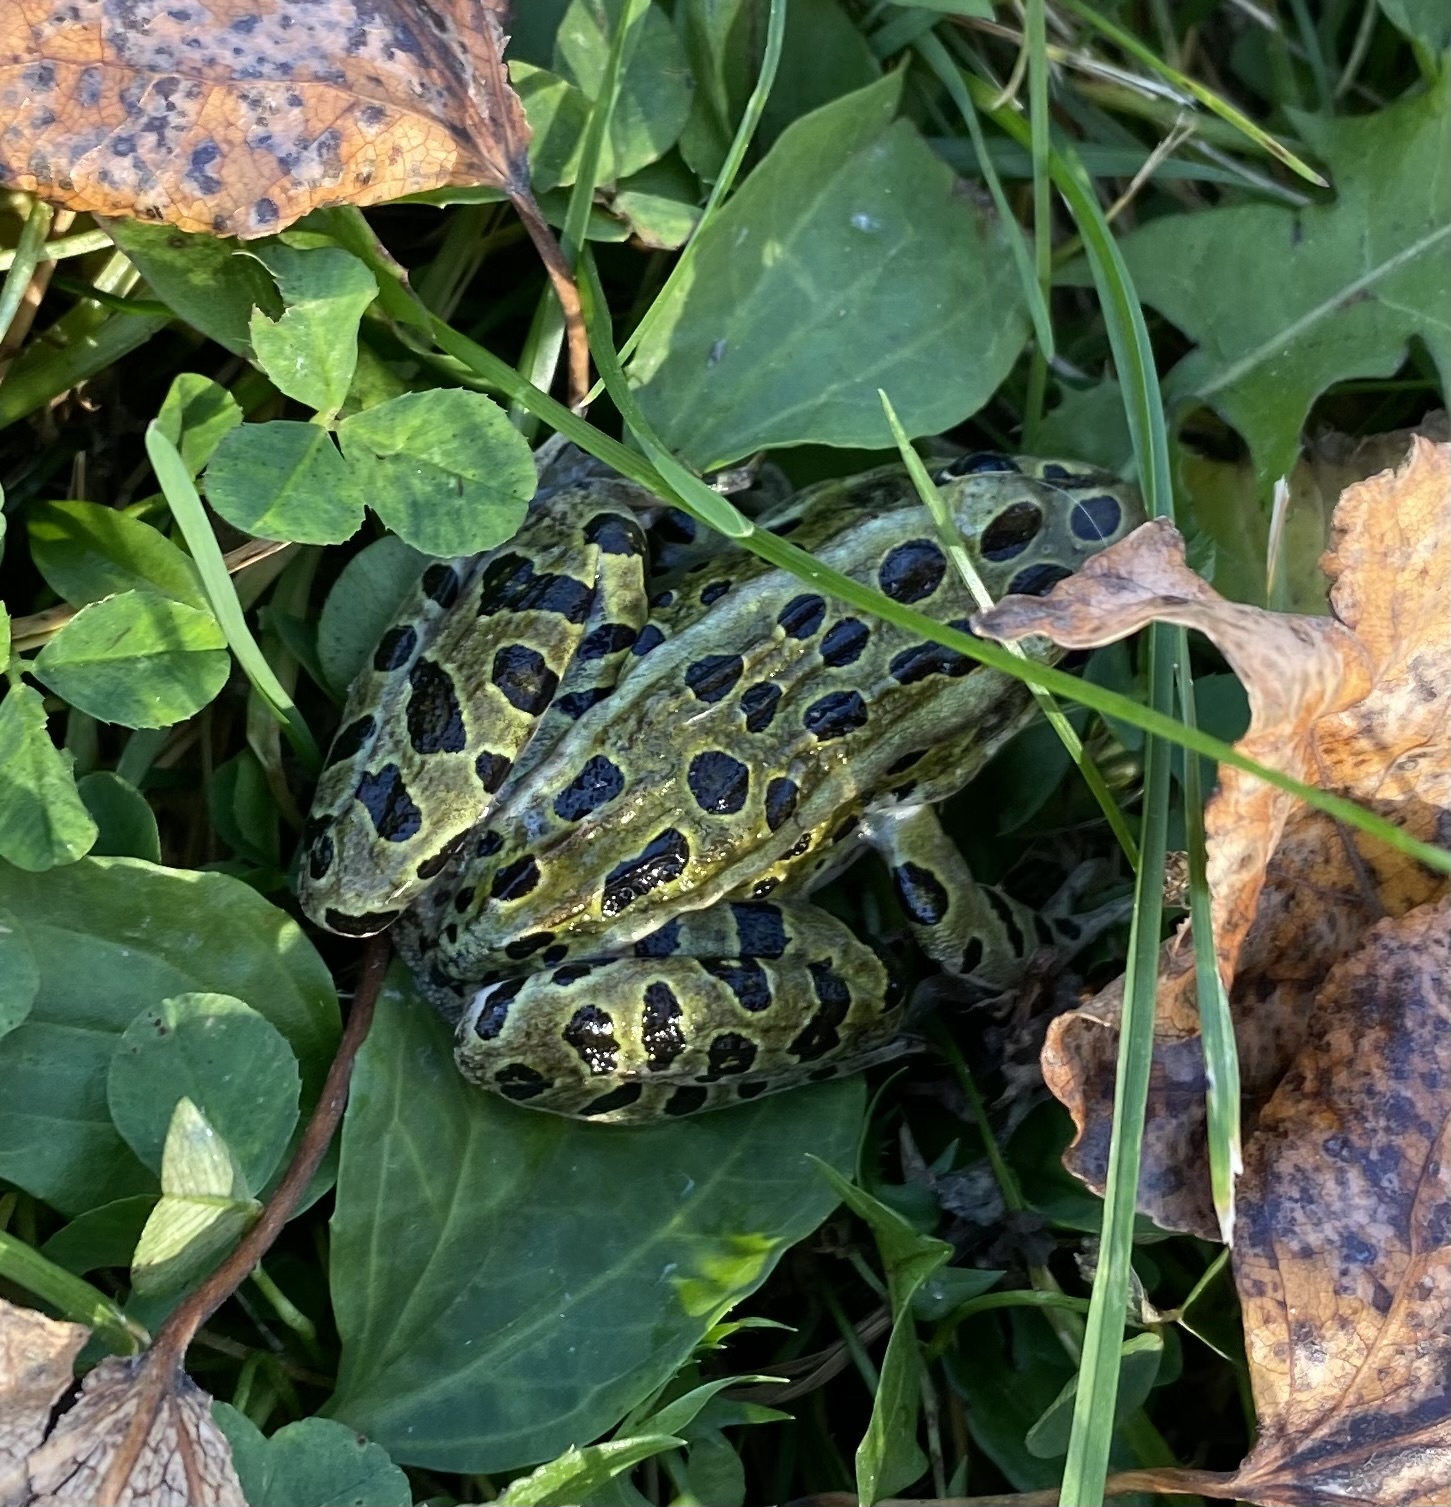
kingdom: Animalia
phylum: Chordata
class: Amphibia
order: Anura
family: Ranidae
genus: Lithobates
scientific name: Lithobates pipiens
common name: Northern leopard frog
